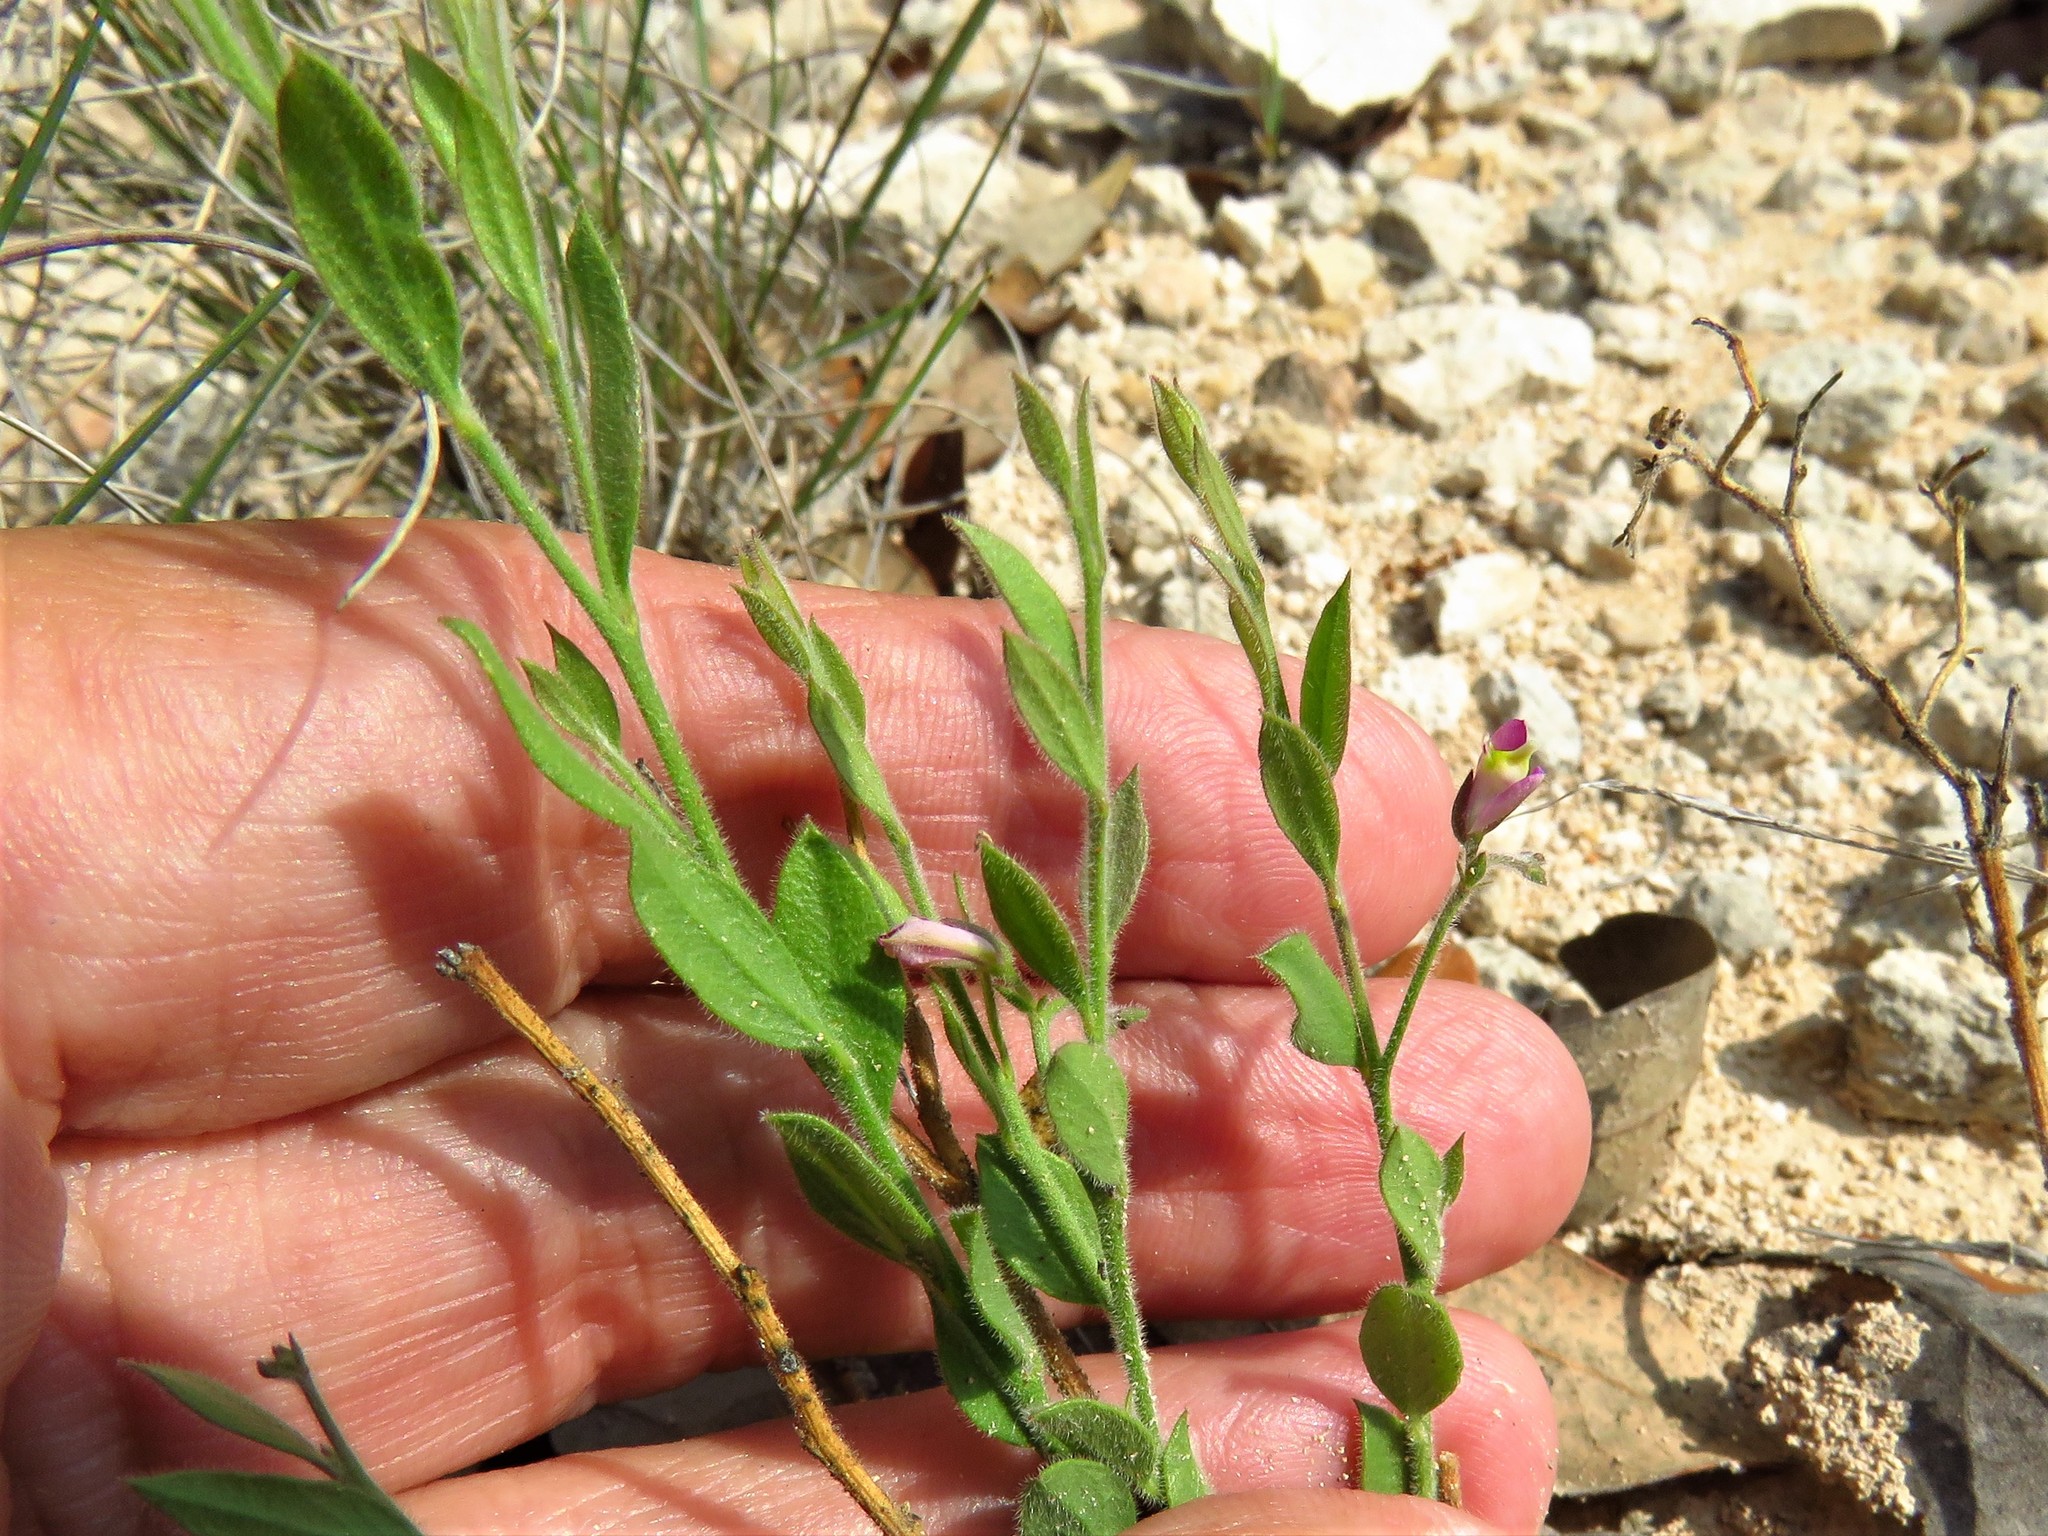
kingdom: Plantae
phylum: Tracheophyta
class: Magnoliopsida
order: Fabales
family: Polygalaceae
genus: Rhinotropis
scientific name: Rhinotropis lindheimeri
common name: Shrubby milkwort
